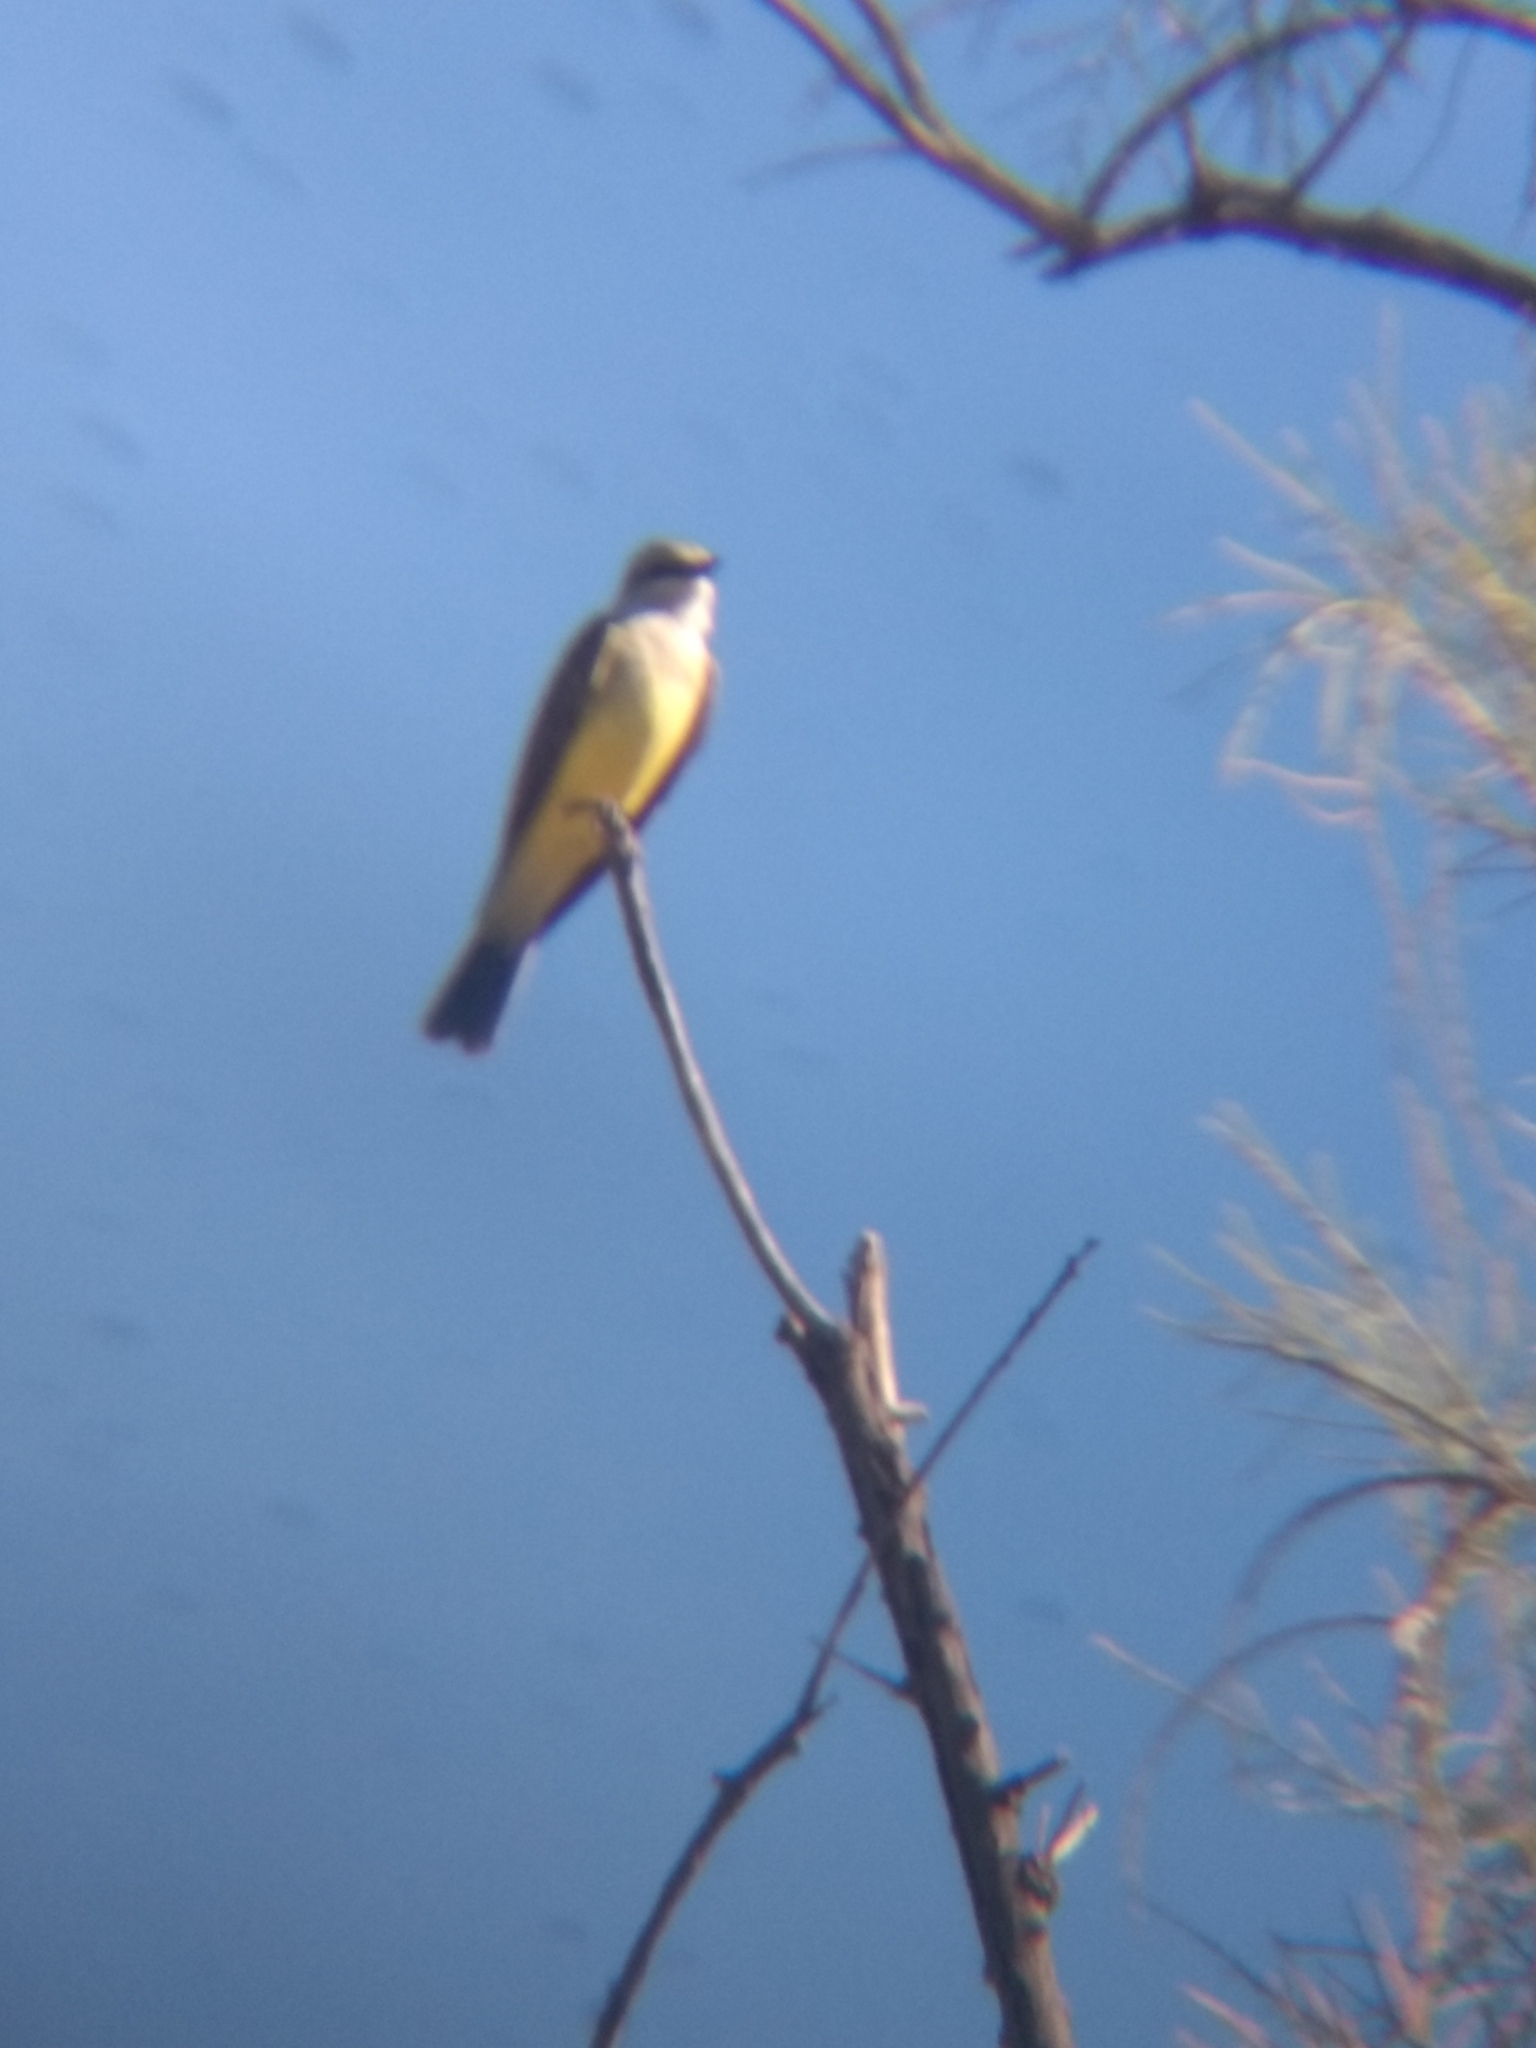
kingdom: Animalia
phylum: Chordata
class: Aves
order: Passeriformes
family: Tyrannidae
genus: Tyrannus
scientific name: Tyrannus verticalis
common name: Western kingbird
